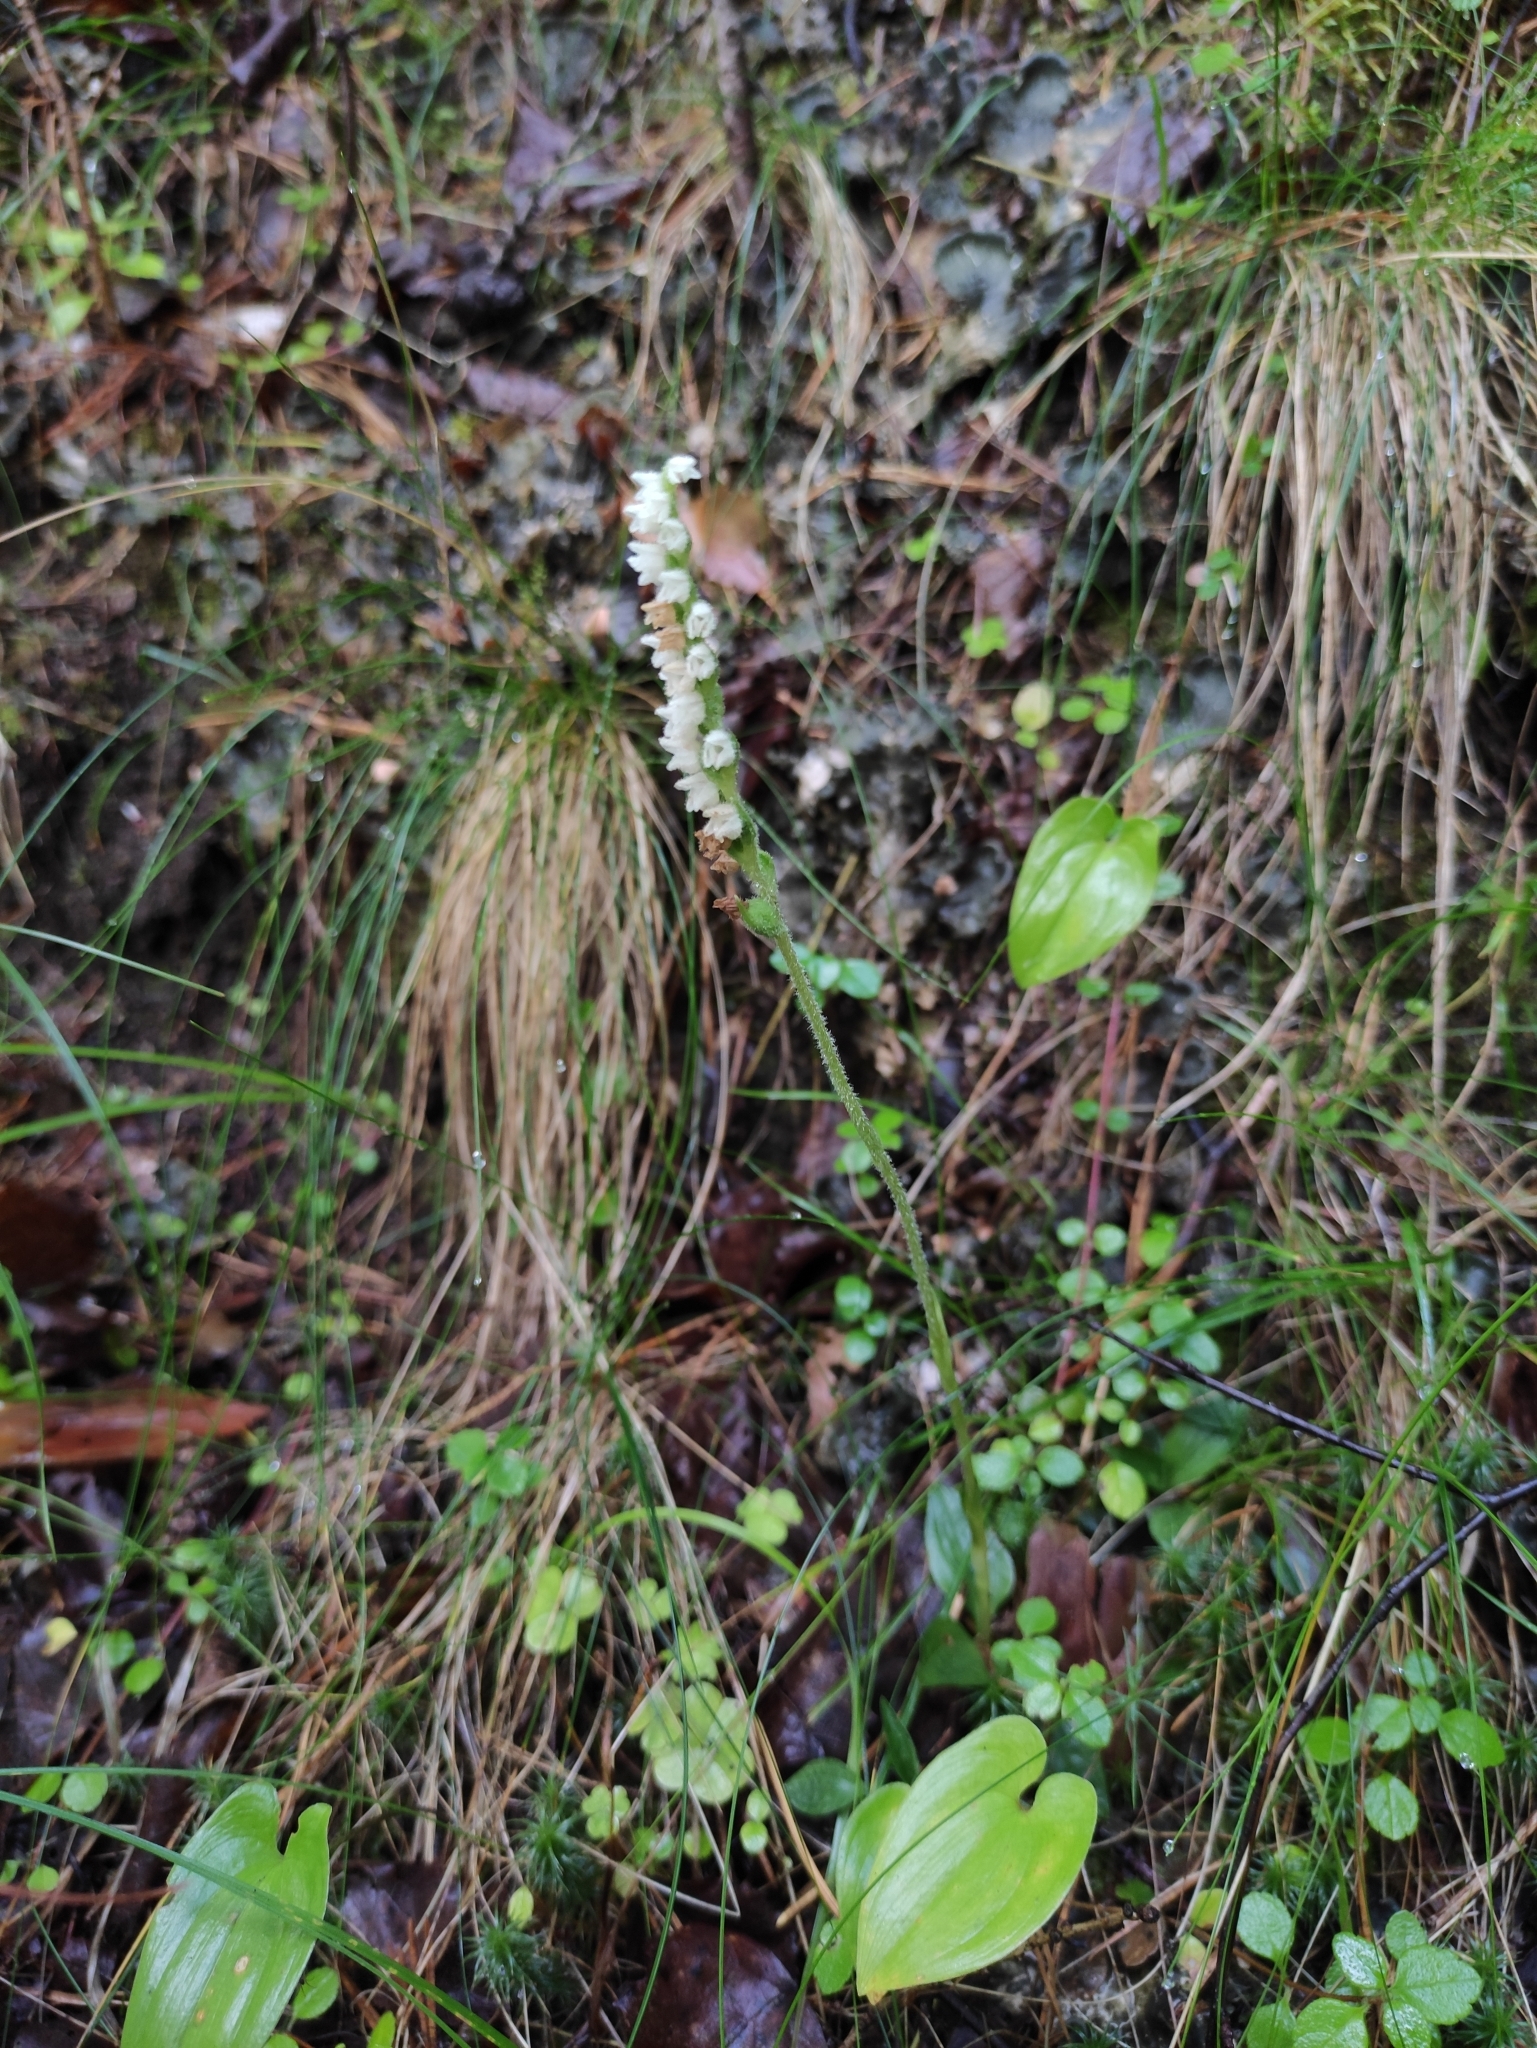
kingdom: Plantae
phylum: Tracheophyta
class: Liliopsida
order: Asparagales
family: Orchidaceae
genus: Goodyera
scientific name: Goodyera repens
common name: Creeping lady's-tresses
